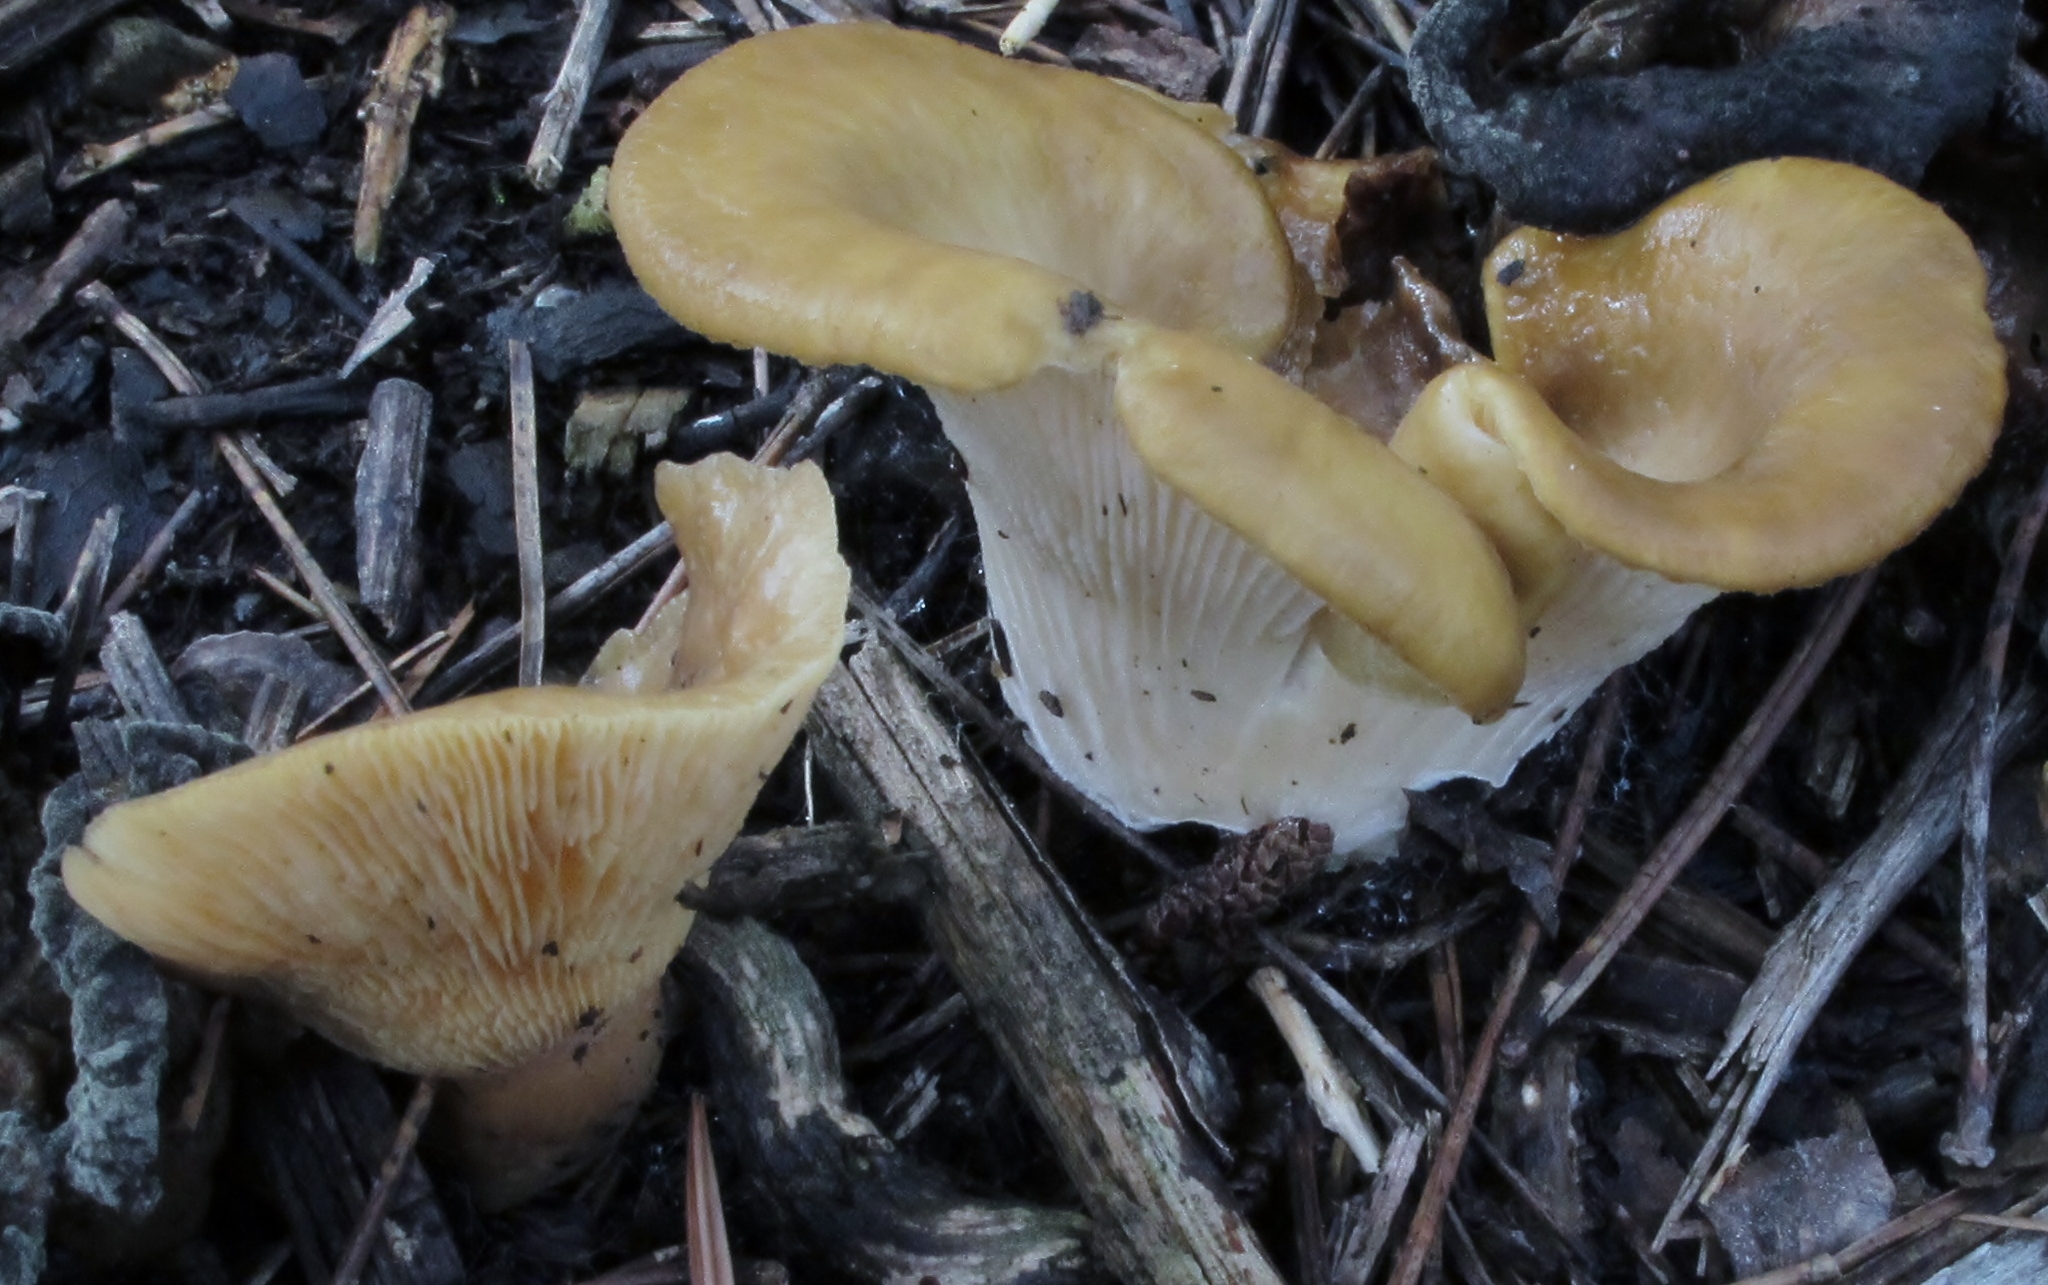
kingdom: Fungi
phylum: Basidiomycota
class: Agaricomycetes
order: Agaricales
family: Pleurotaceae
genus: Hohenbuehelia
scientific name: Hohenbuehelia petaloides
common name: Shoehorn oyster
